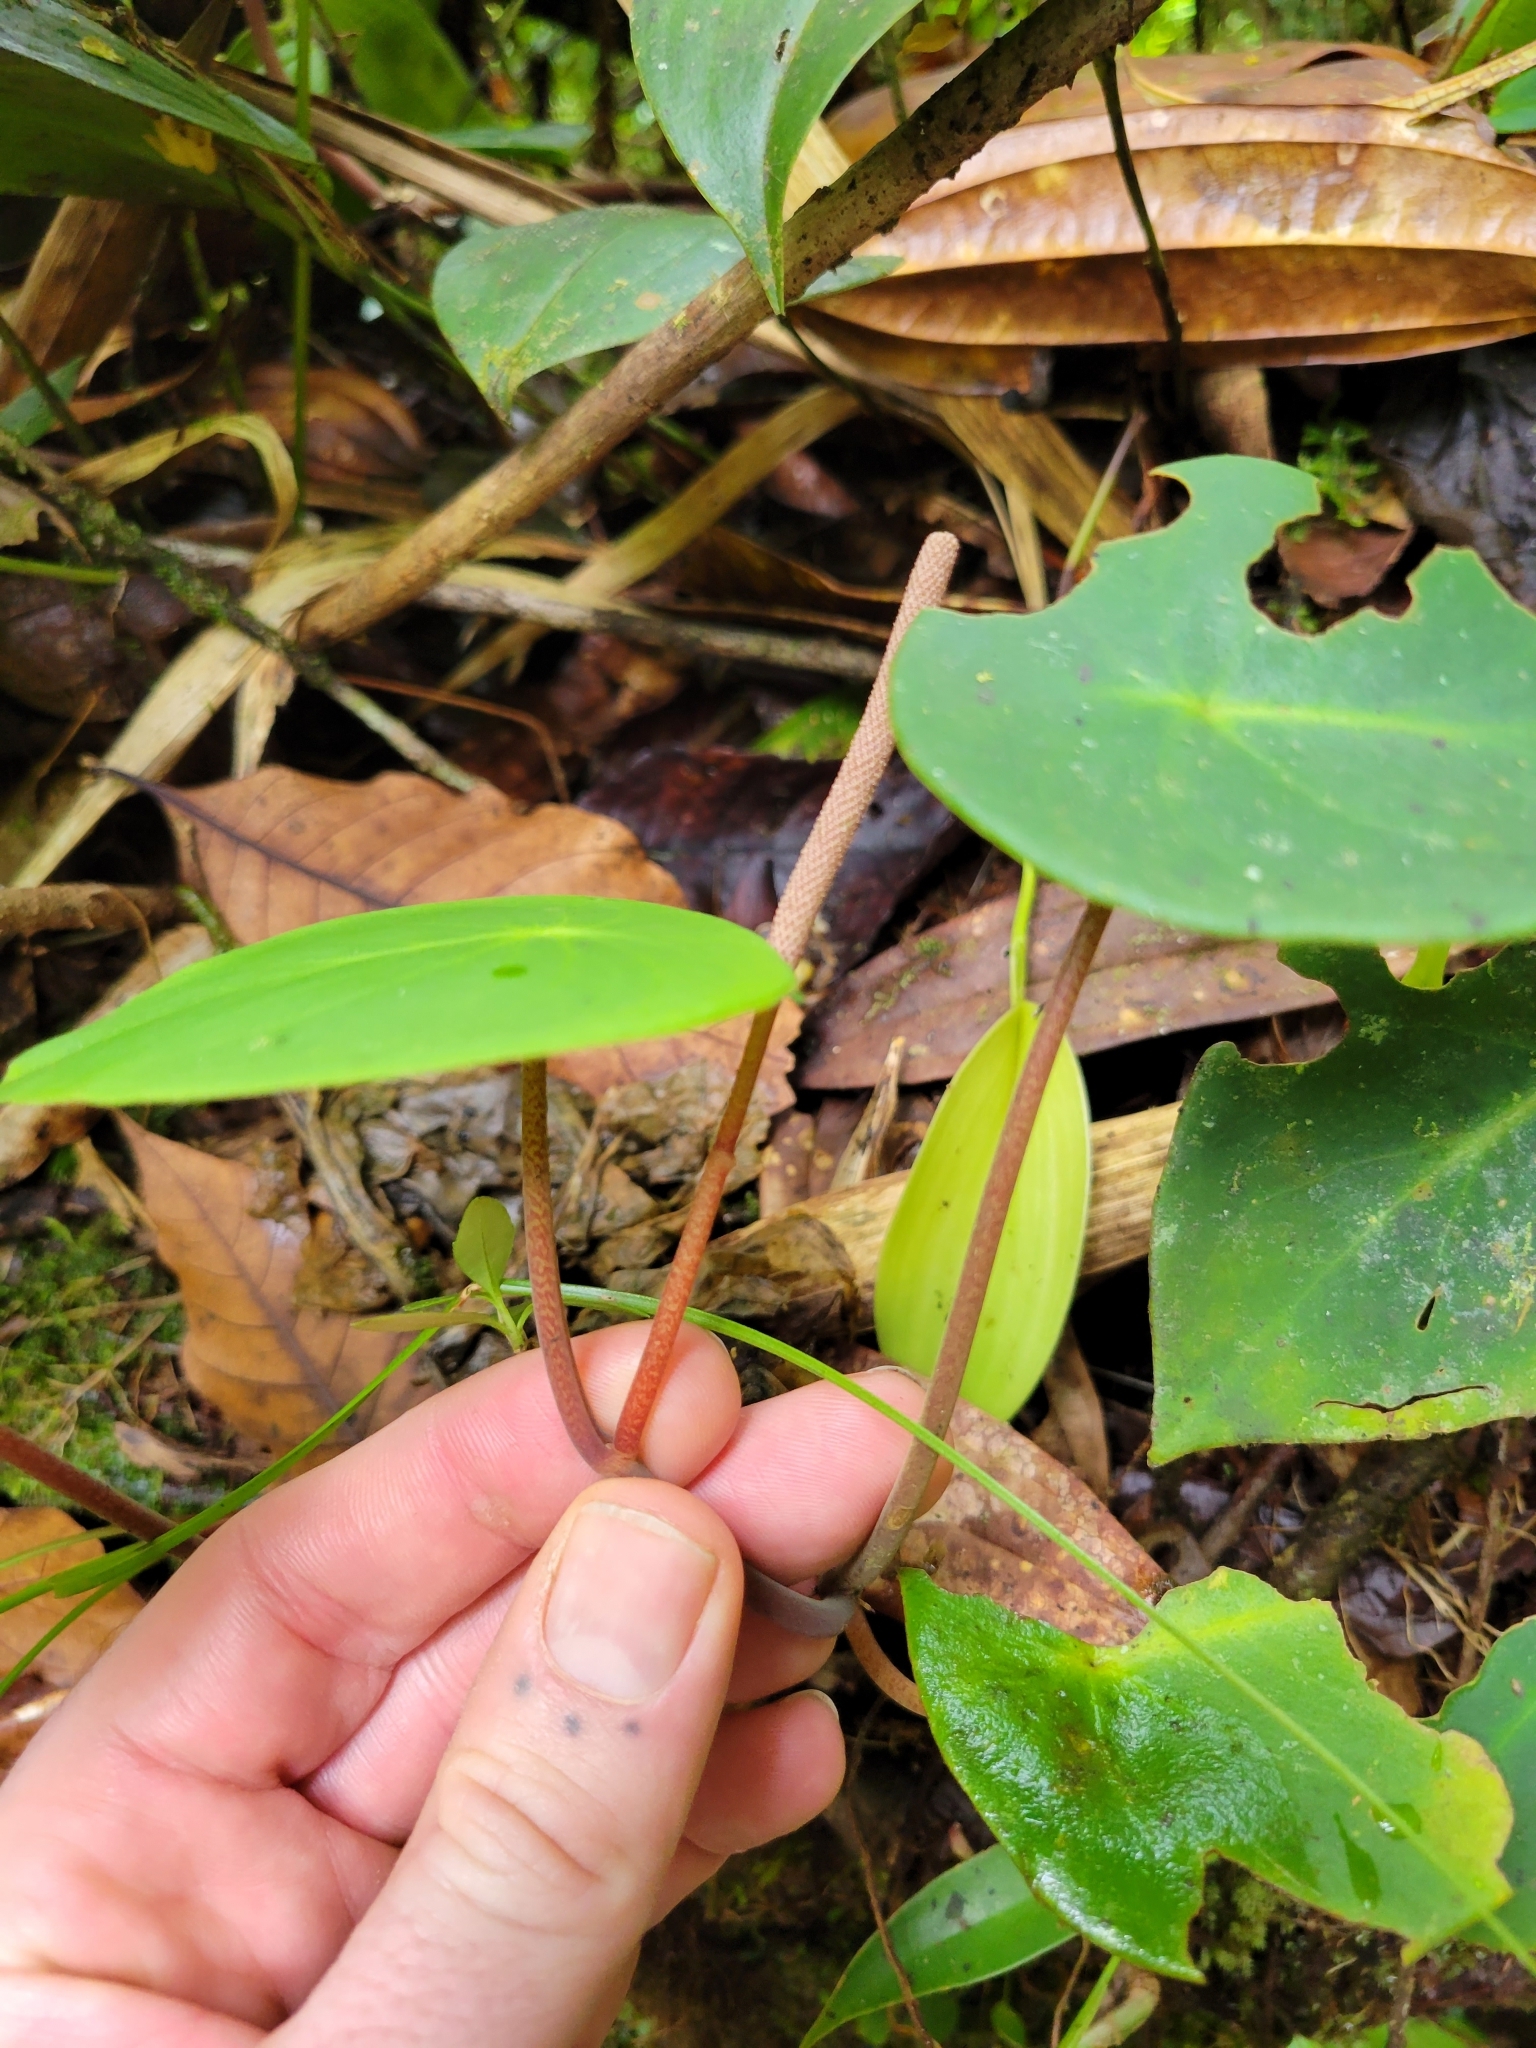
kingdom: Plantae
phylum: Tracheophyta
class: Magnoliopsida
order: Piperales
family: Piperaceae
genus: Peperomia
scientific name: Peperomia hernandiifolia
